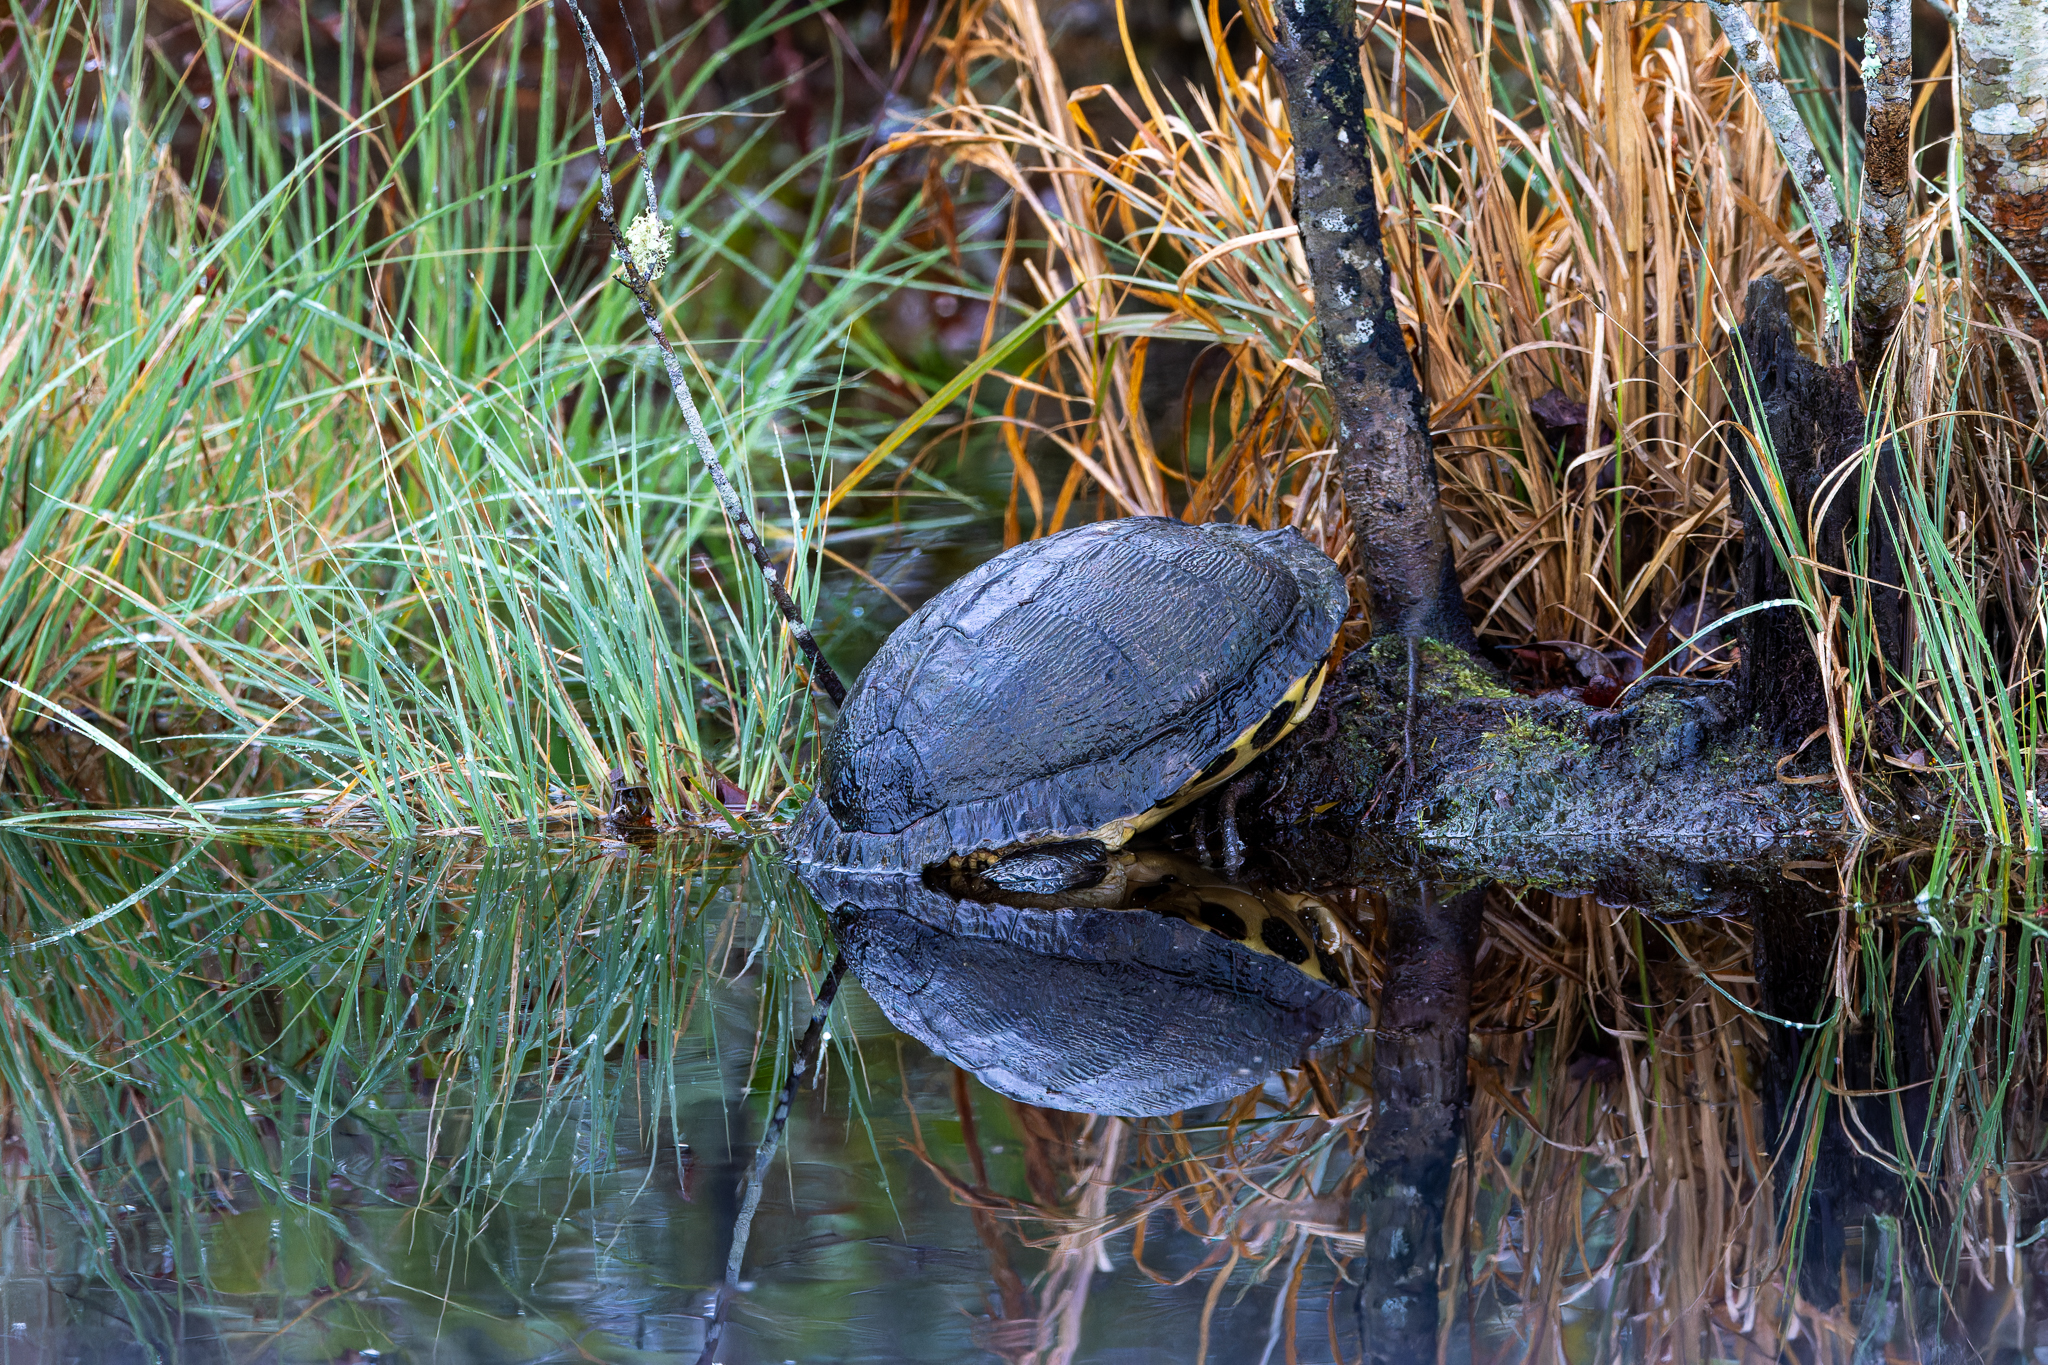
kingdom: Animalia
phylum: Chordata
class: Testudines
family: Emydidae
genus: Trachemys
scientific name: Trachemys scripta
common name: Slider
